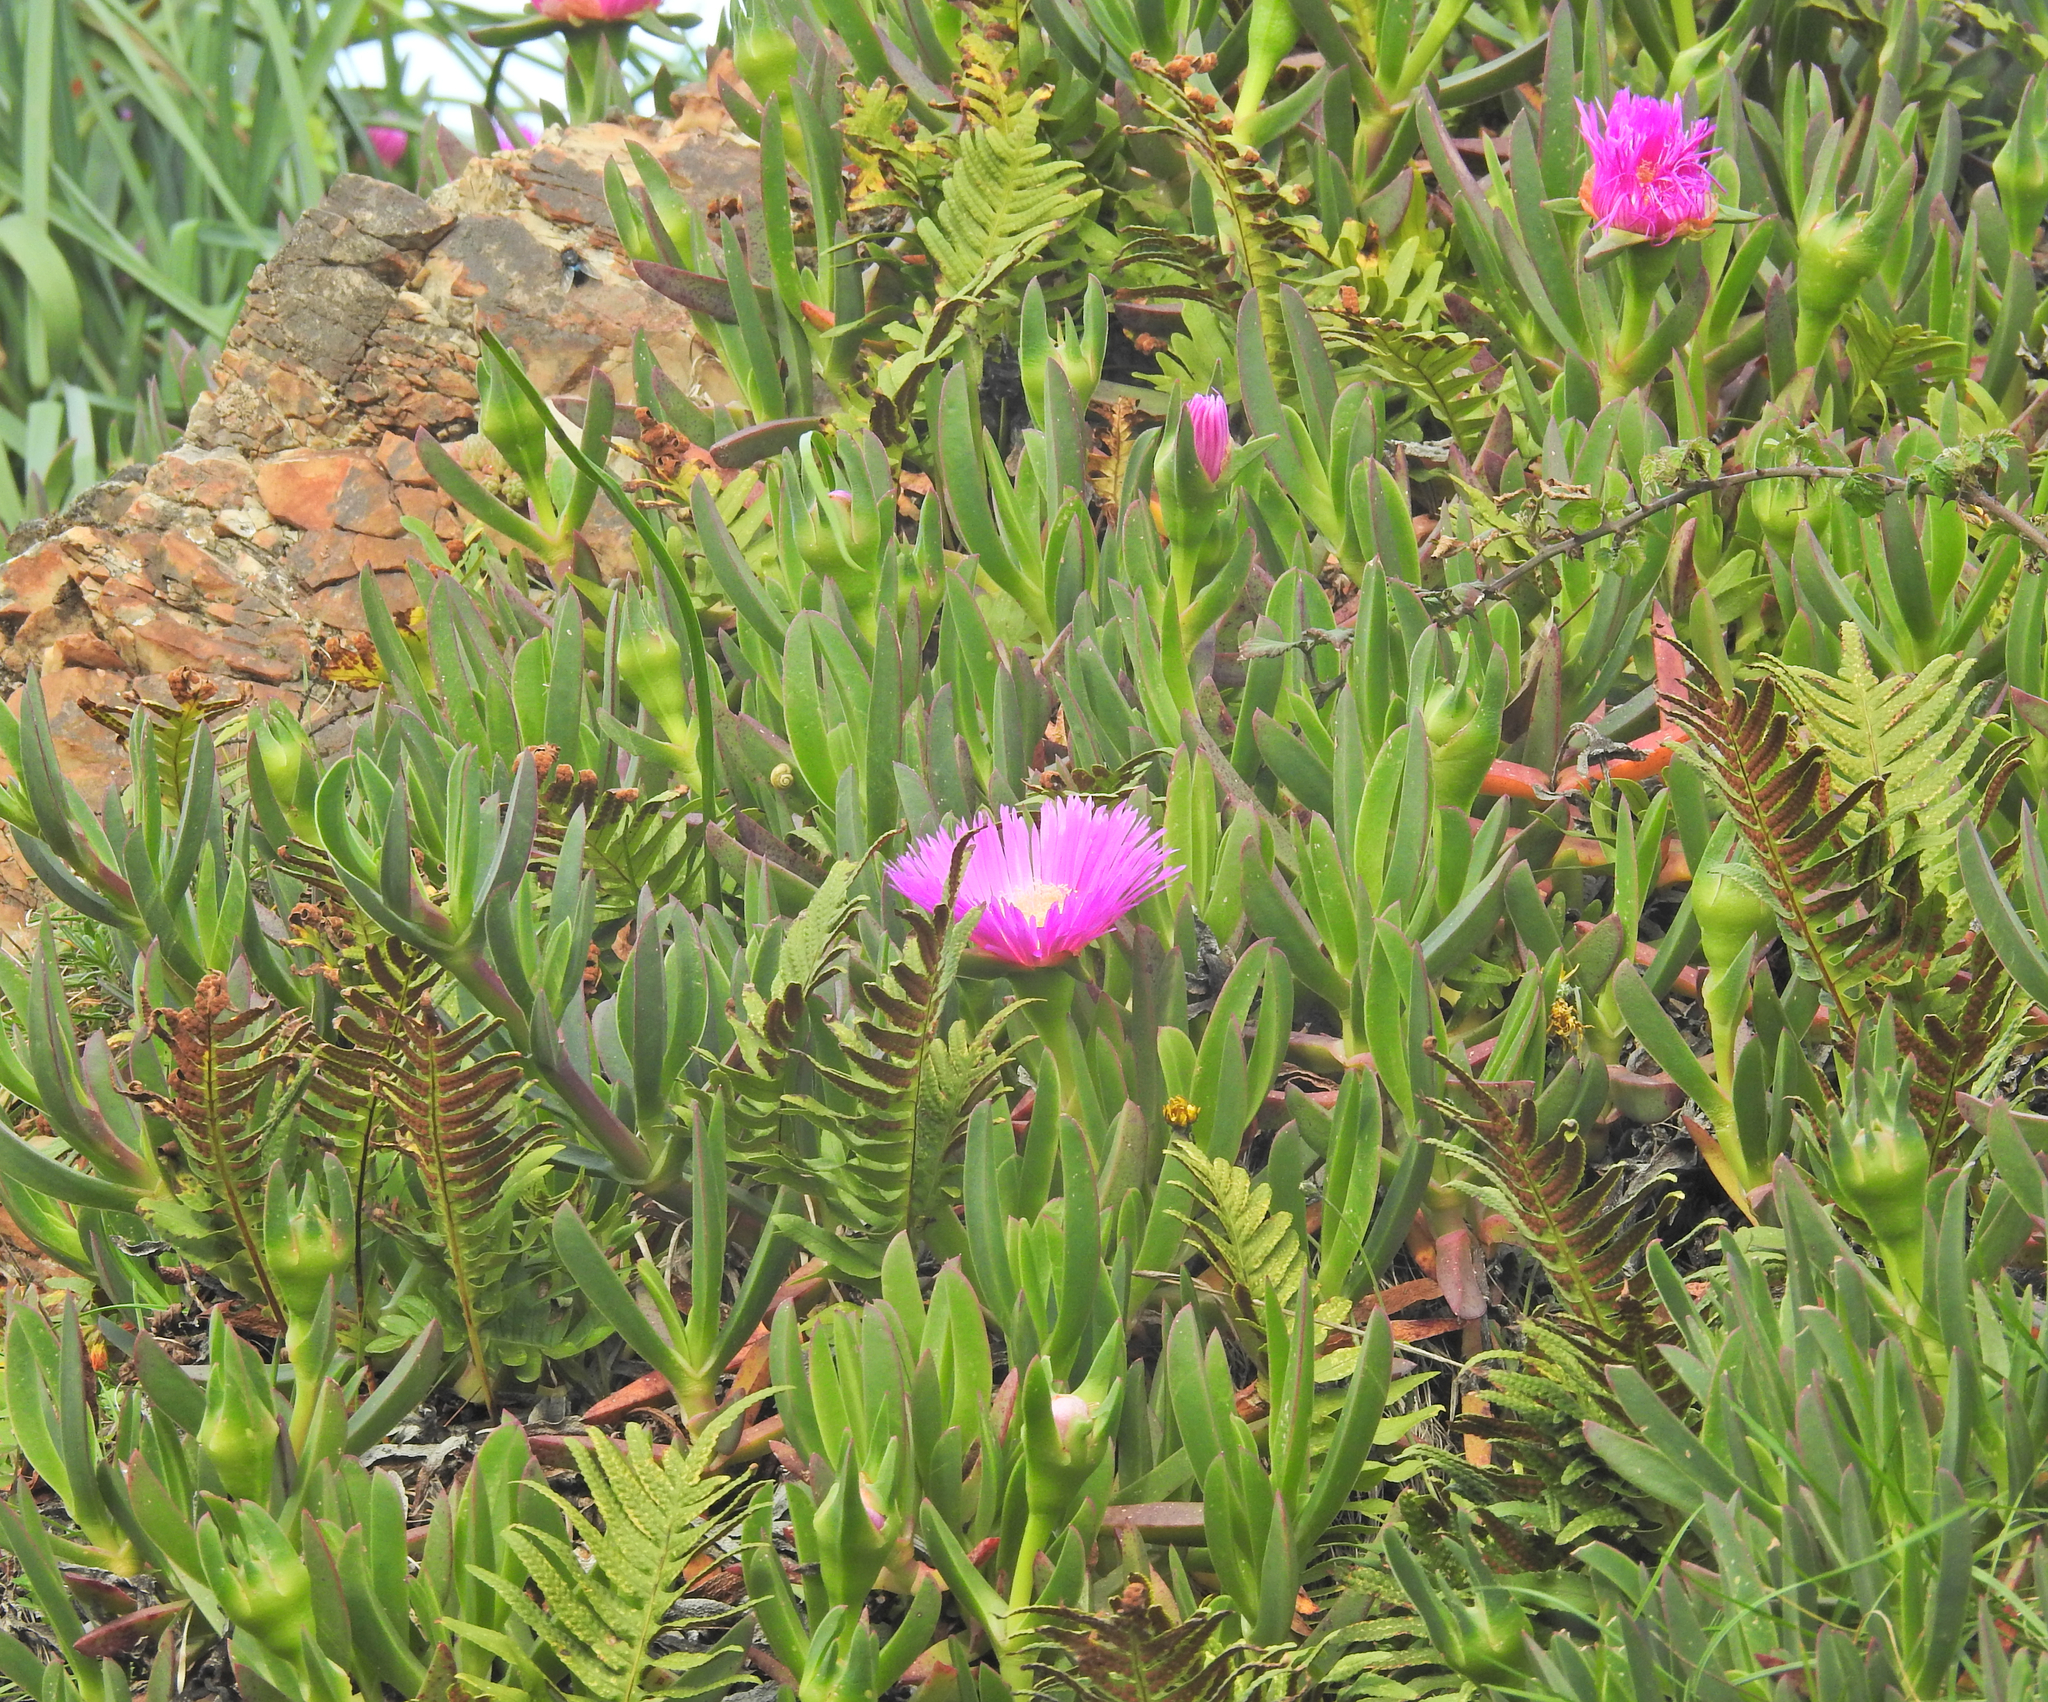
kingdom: Plantae
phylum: Tracheophyta
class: Magnoliopsida
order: Caryophyllales
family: Aizoaceae
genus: Carpobrotus
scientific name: Carpobrotus acinaciformis
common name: Sally-my-handsome
